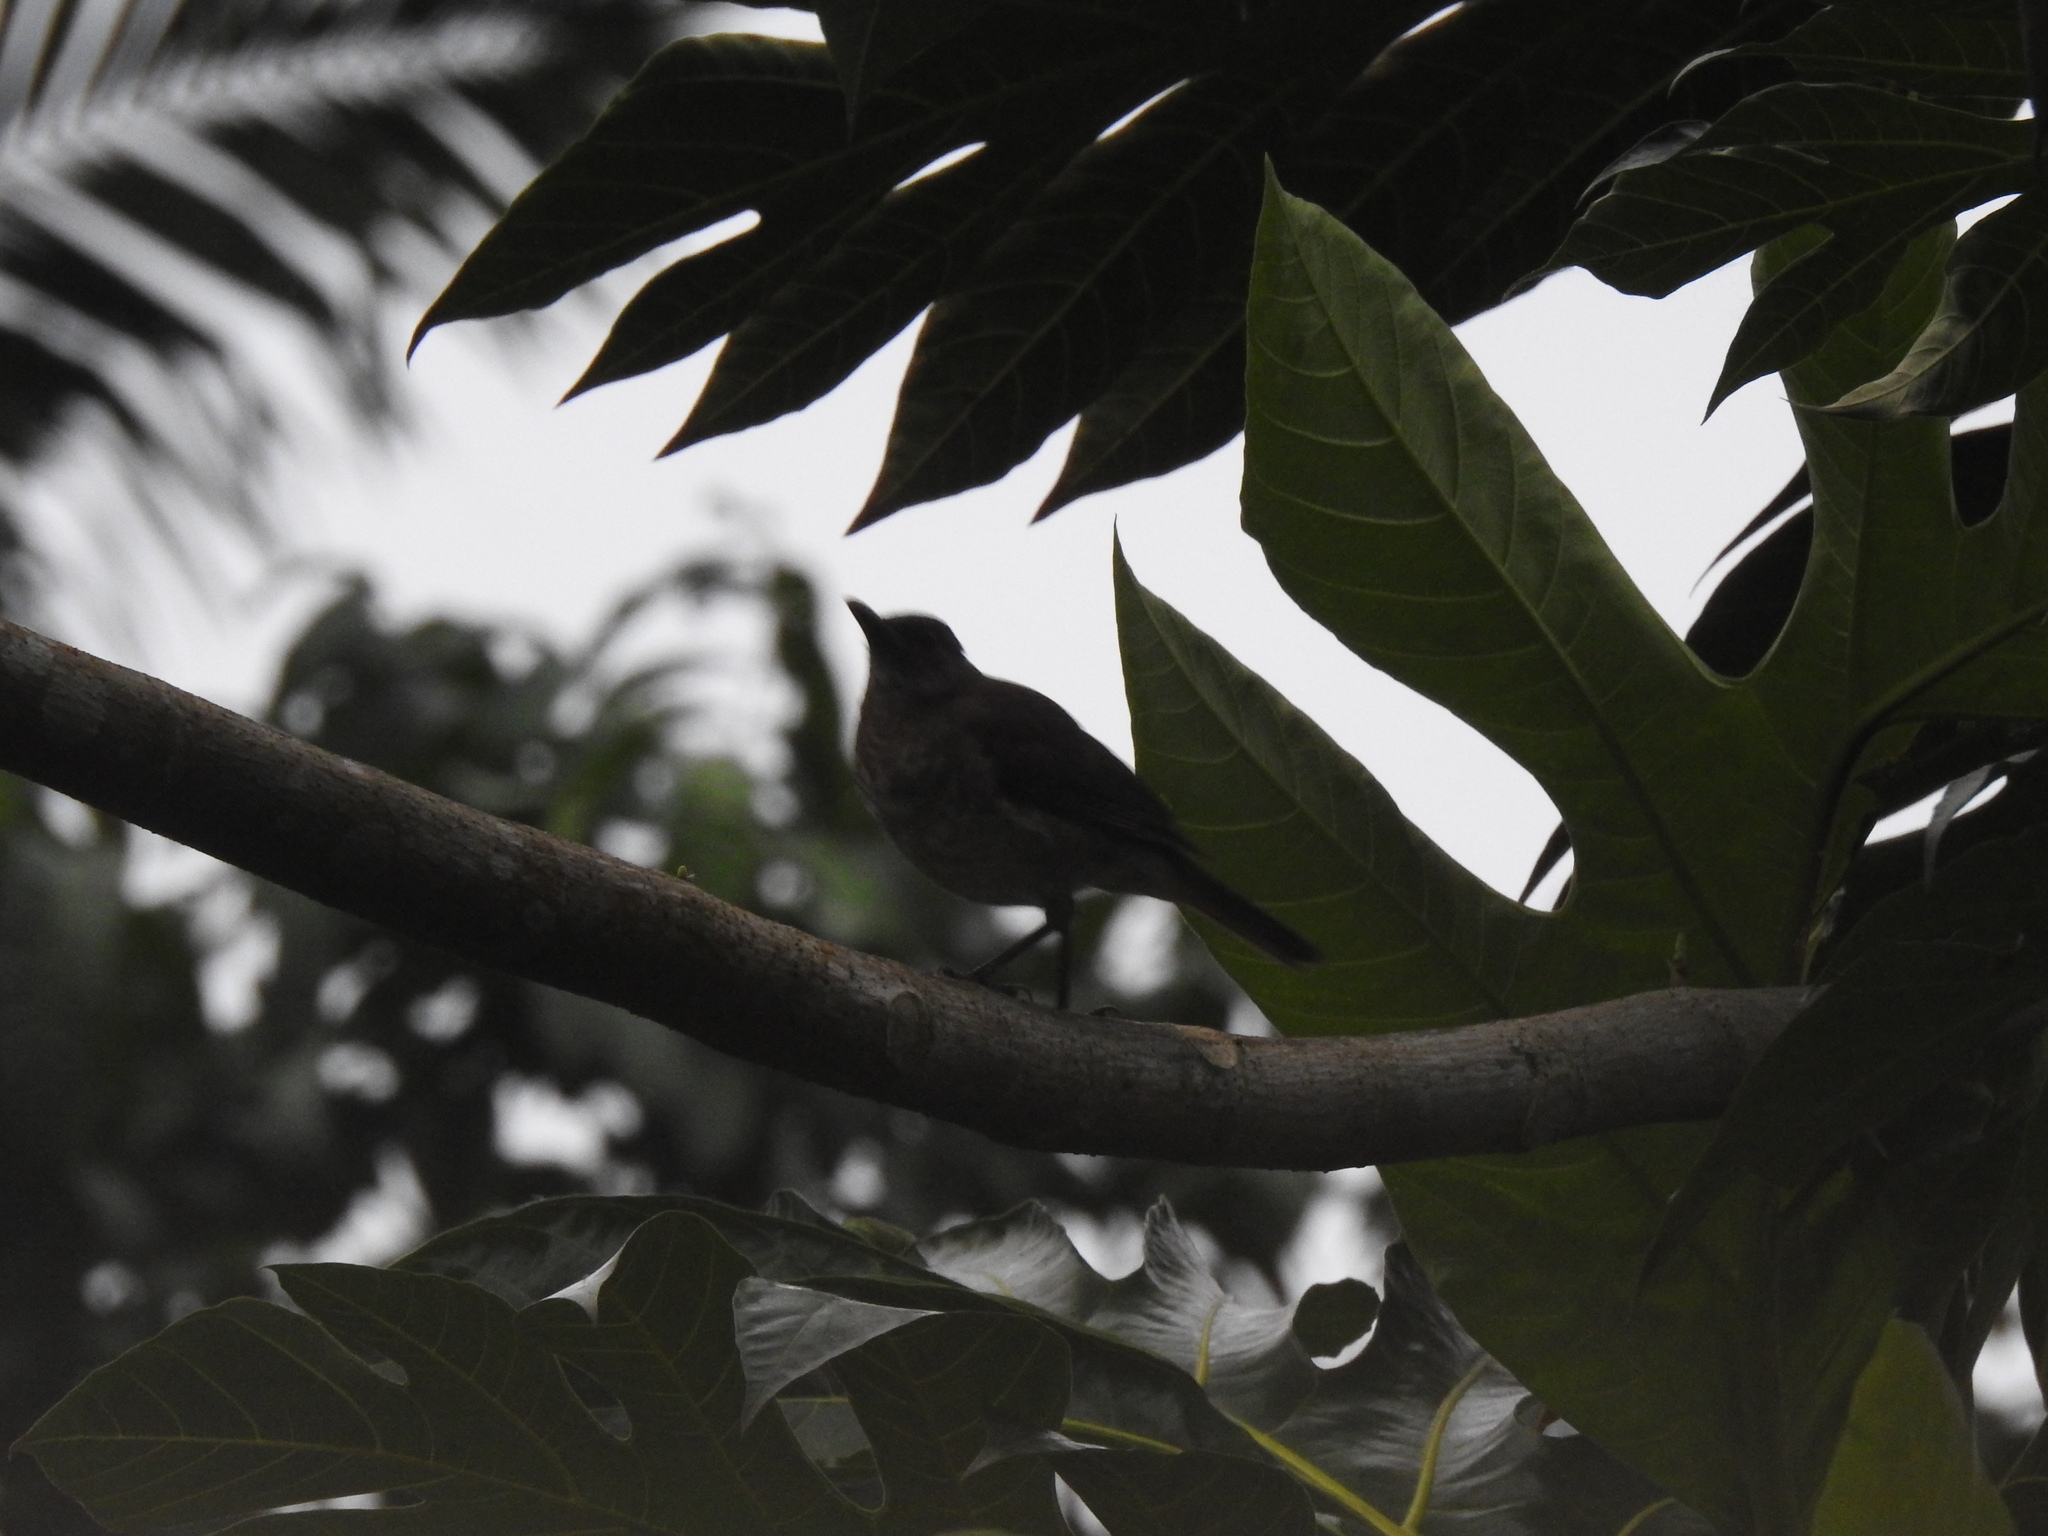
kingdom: Animalia
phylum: Chordata
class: Aves
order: Passeriformes
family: Turdidae
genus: Turdus
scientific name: Turdus olivaceofuscus
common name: Sao tome thrush
